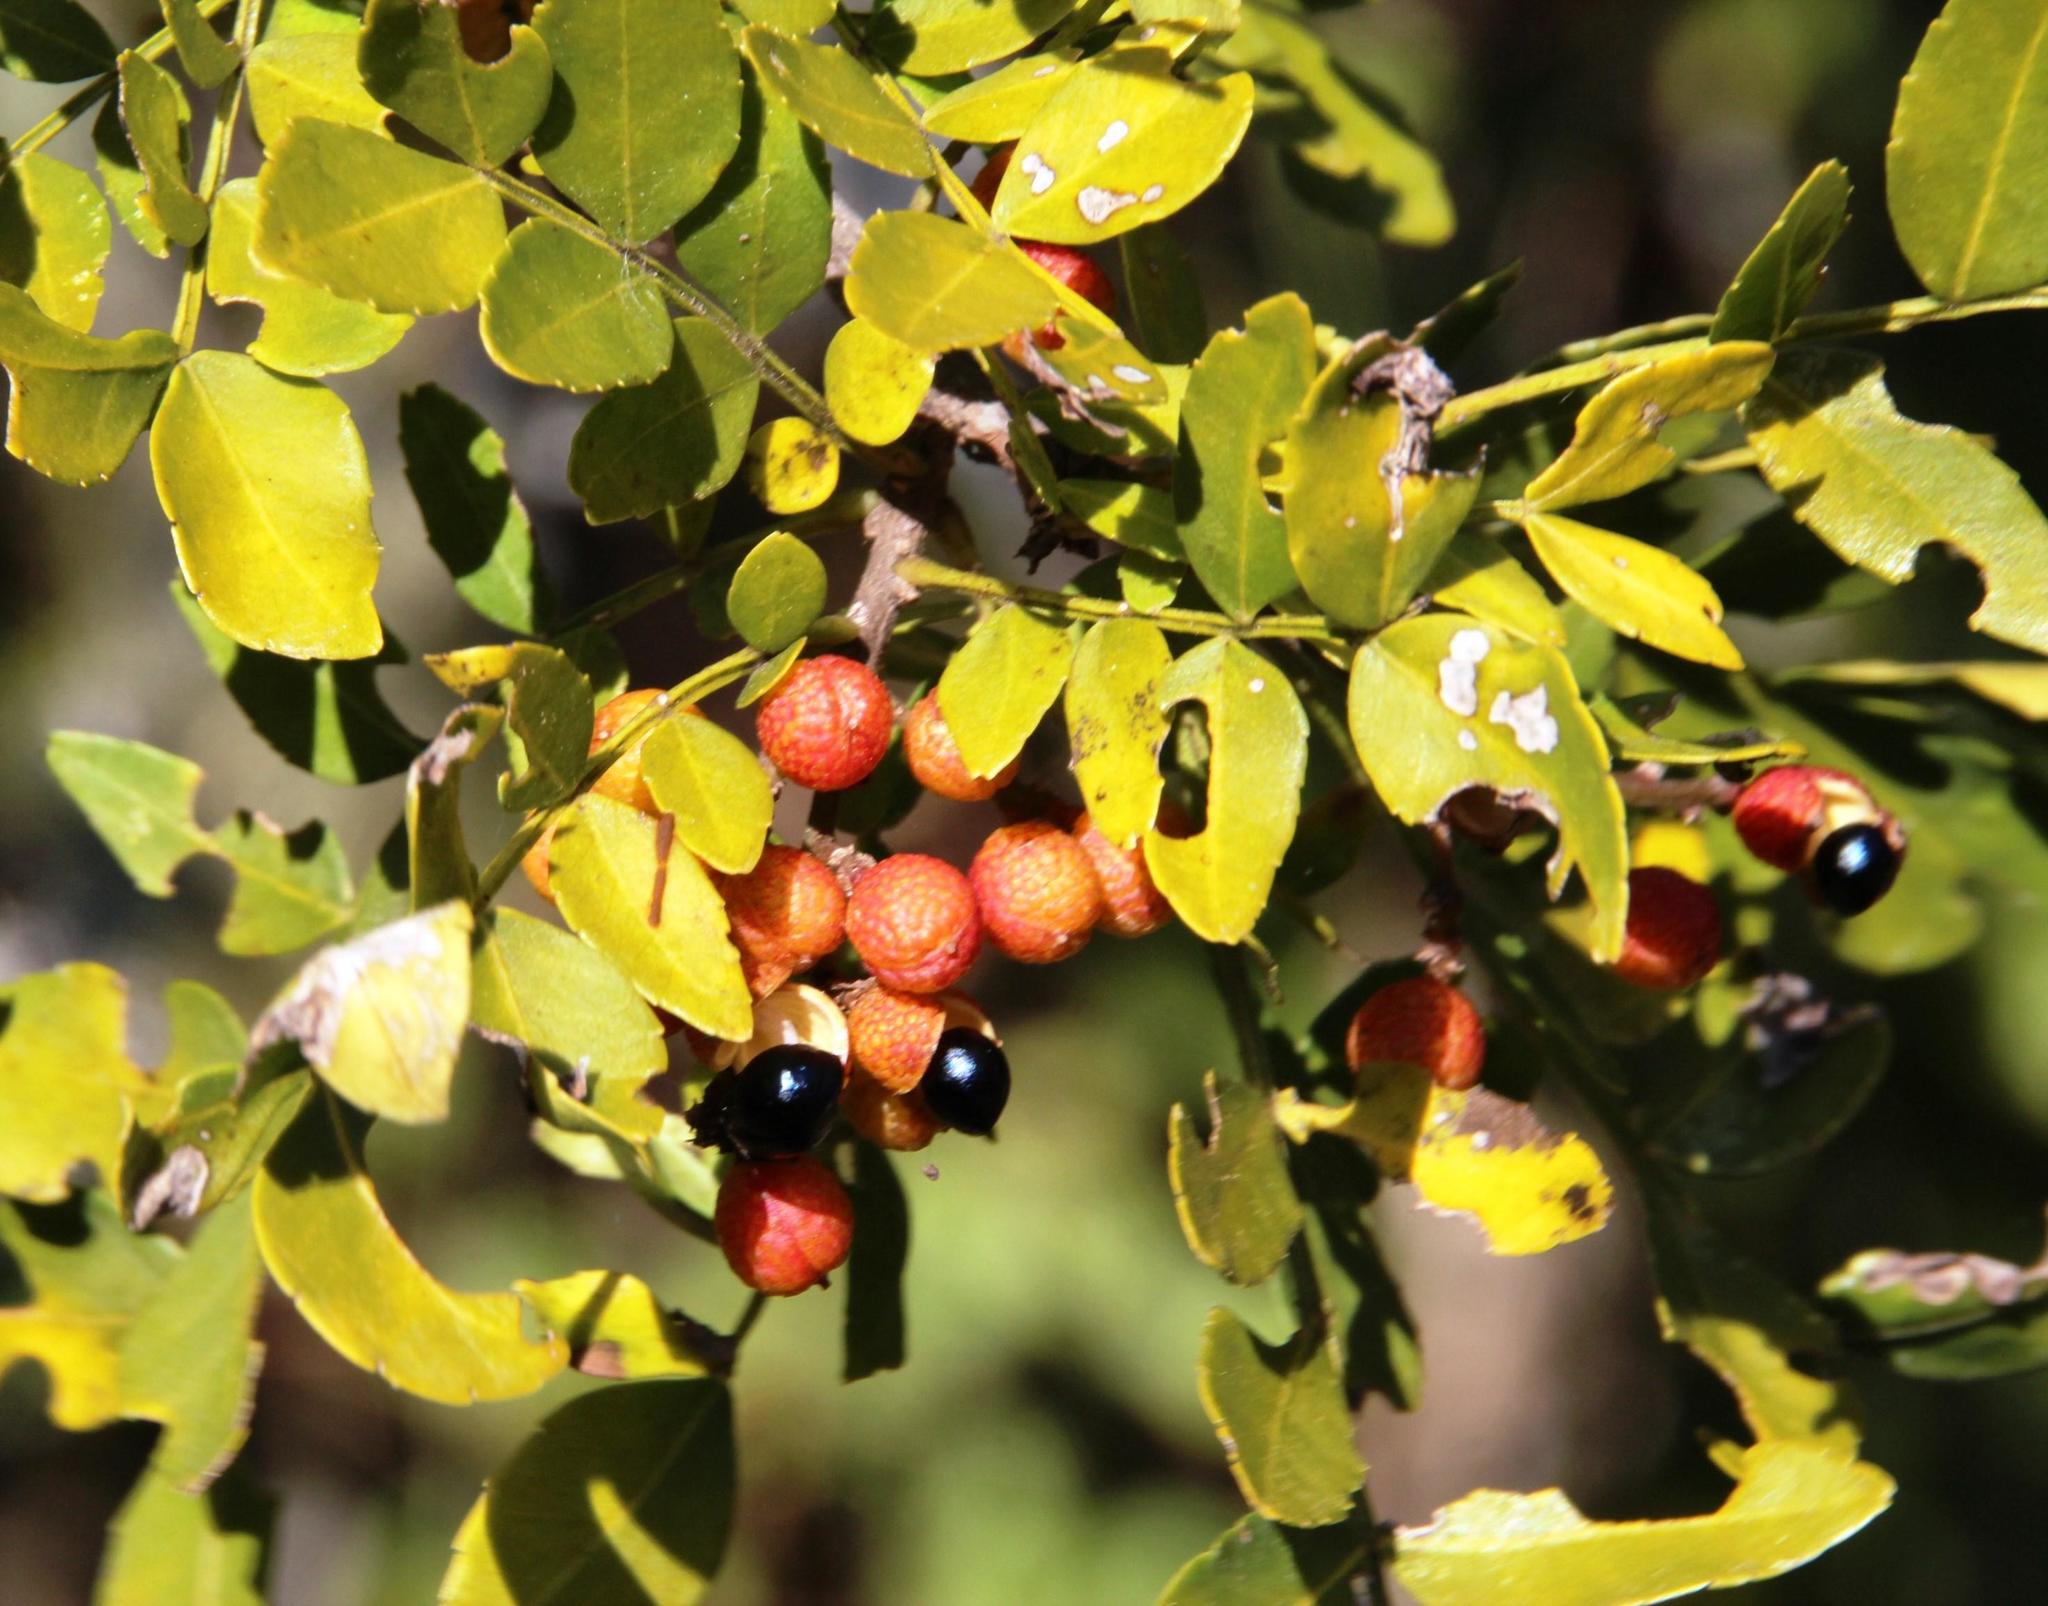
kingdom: Plantae
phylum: Tracheophyta
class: Magnoliopsida
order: Sapindales
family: Rutaceae
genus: Zanthoxylum
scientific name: Zanthoxylum capense
